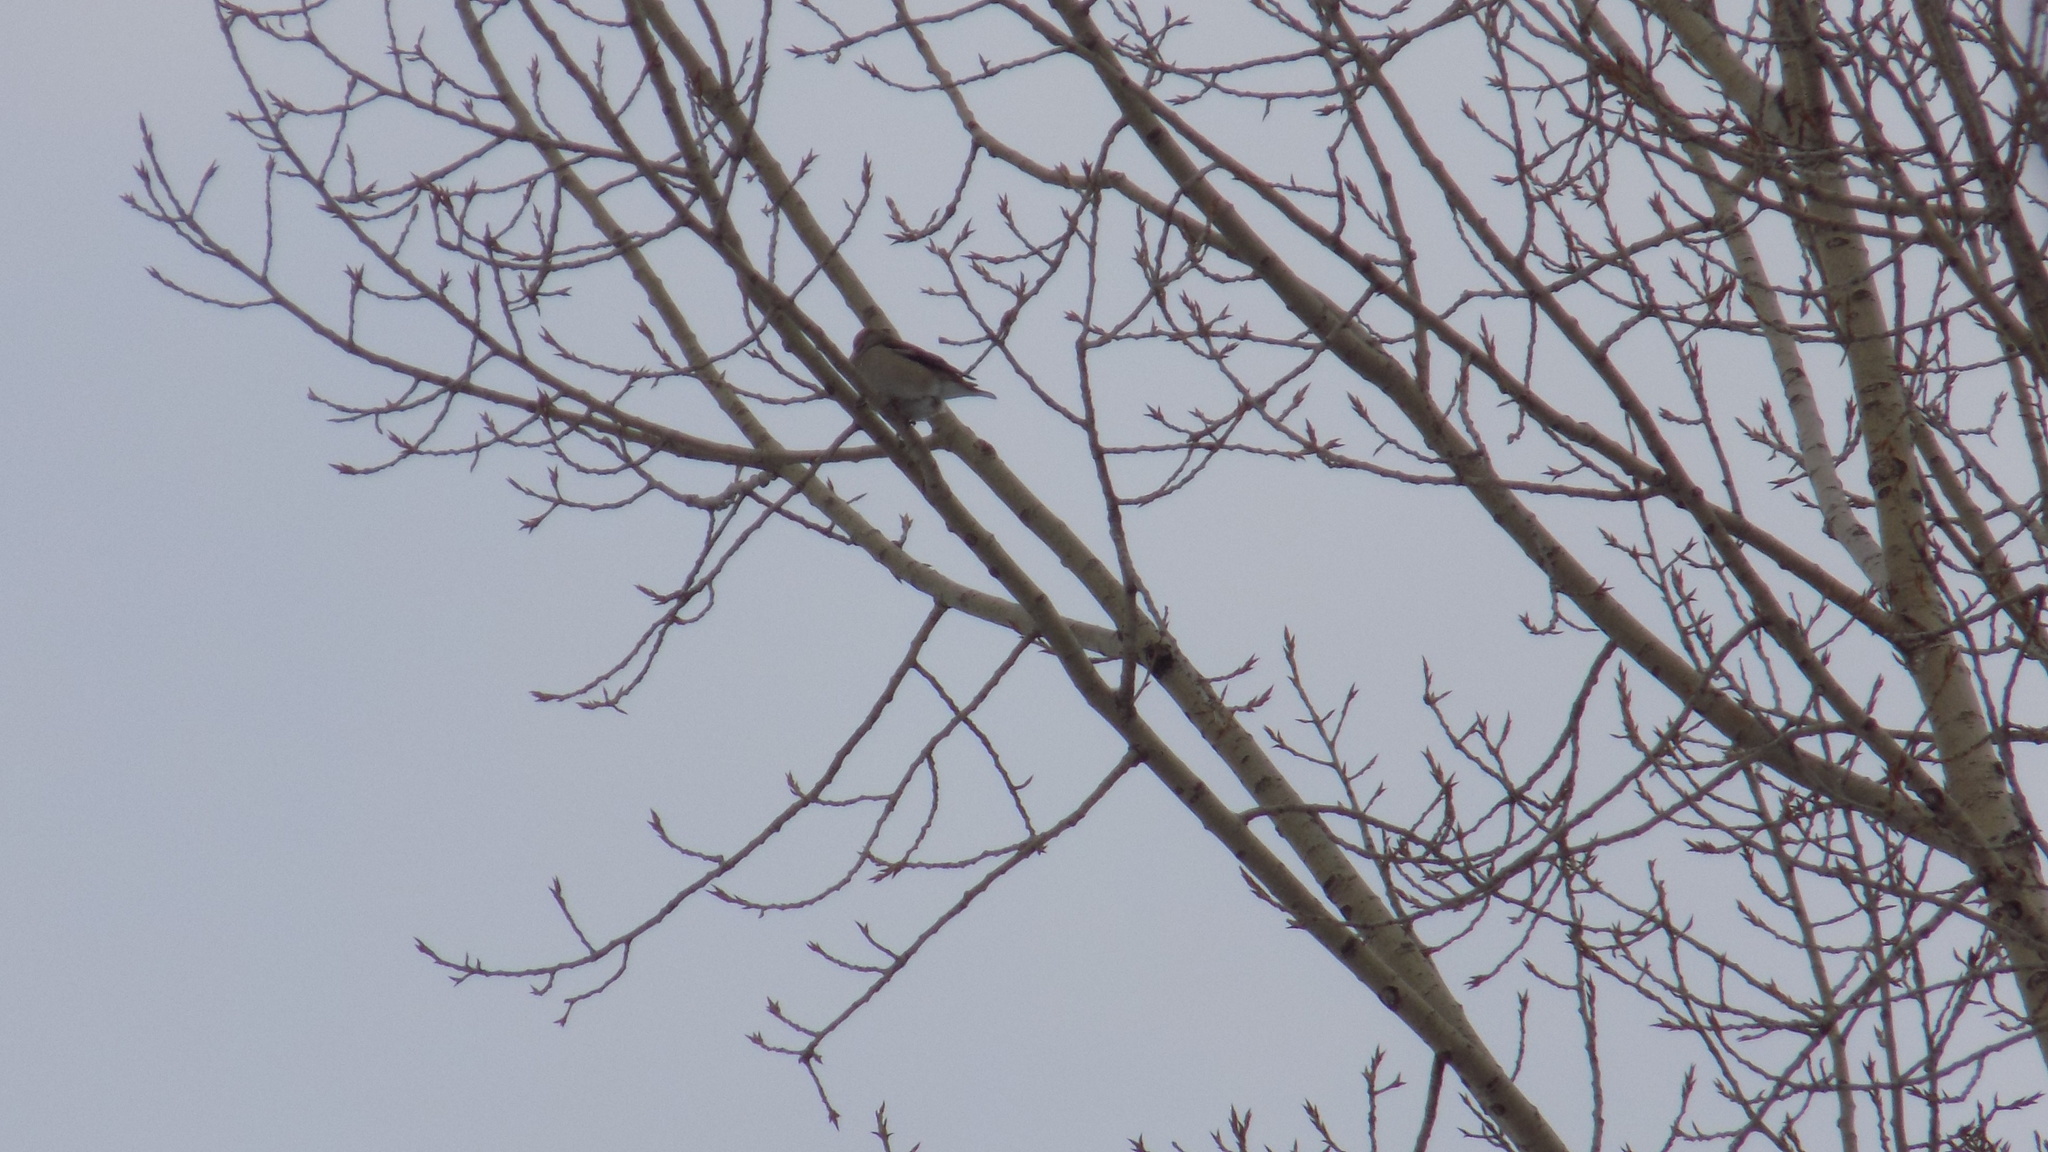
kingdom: Animalia
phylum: Chordata
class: Aves
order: Passeriformes
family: Fringillidae
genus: Coccothraustes
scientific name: Coccothraustes coccothraustes
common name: Hawfinch
